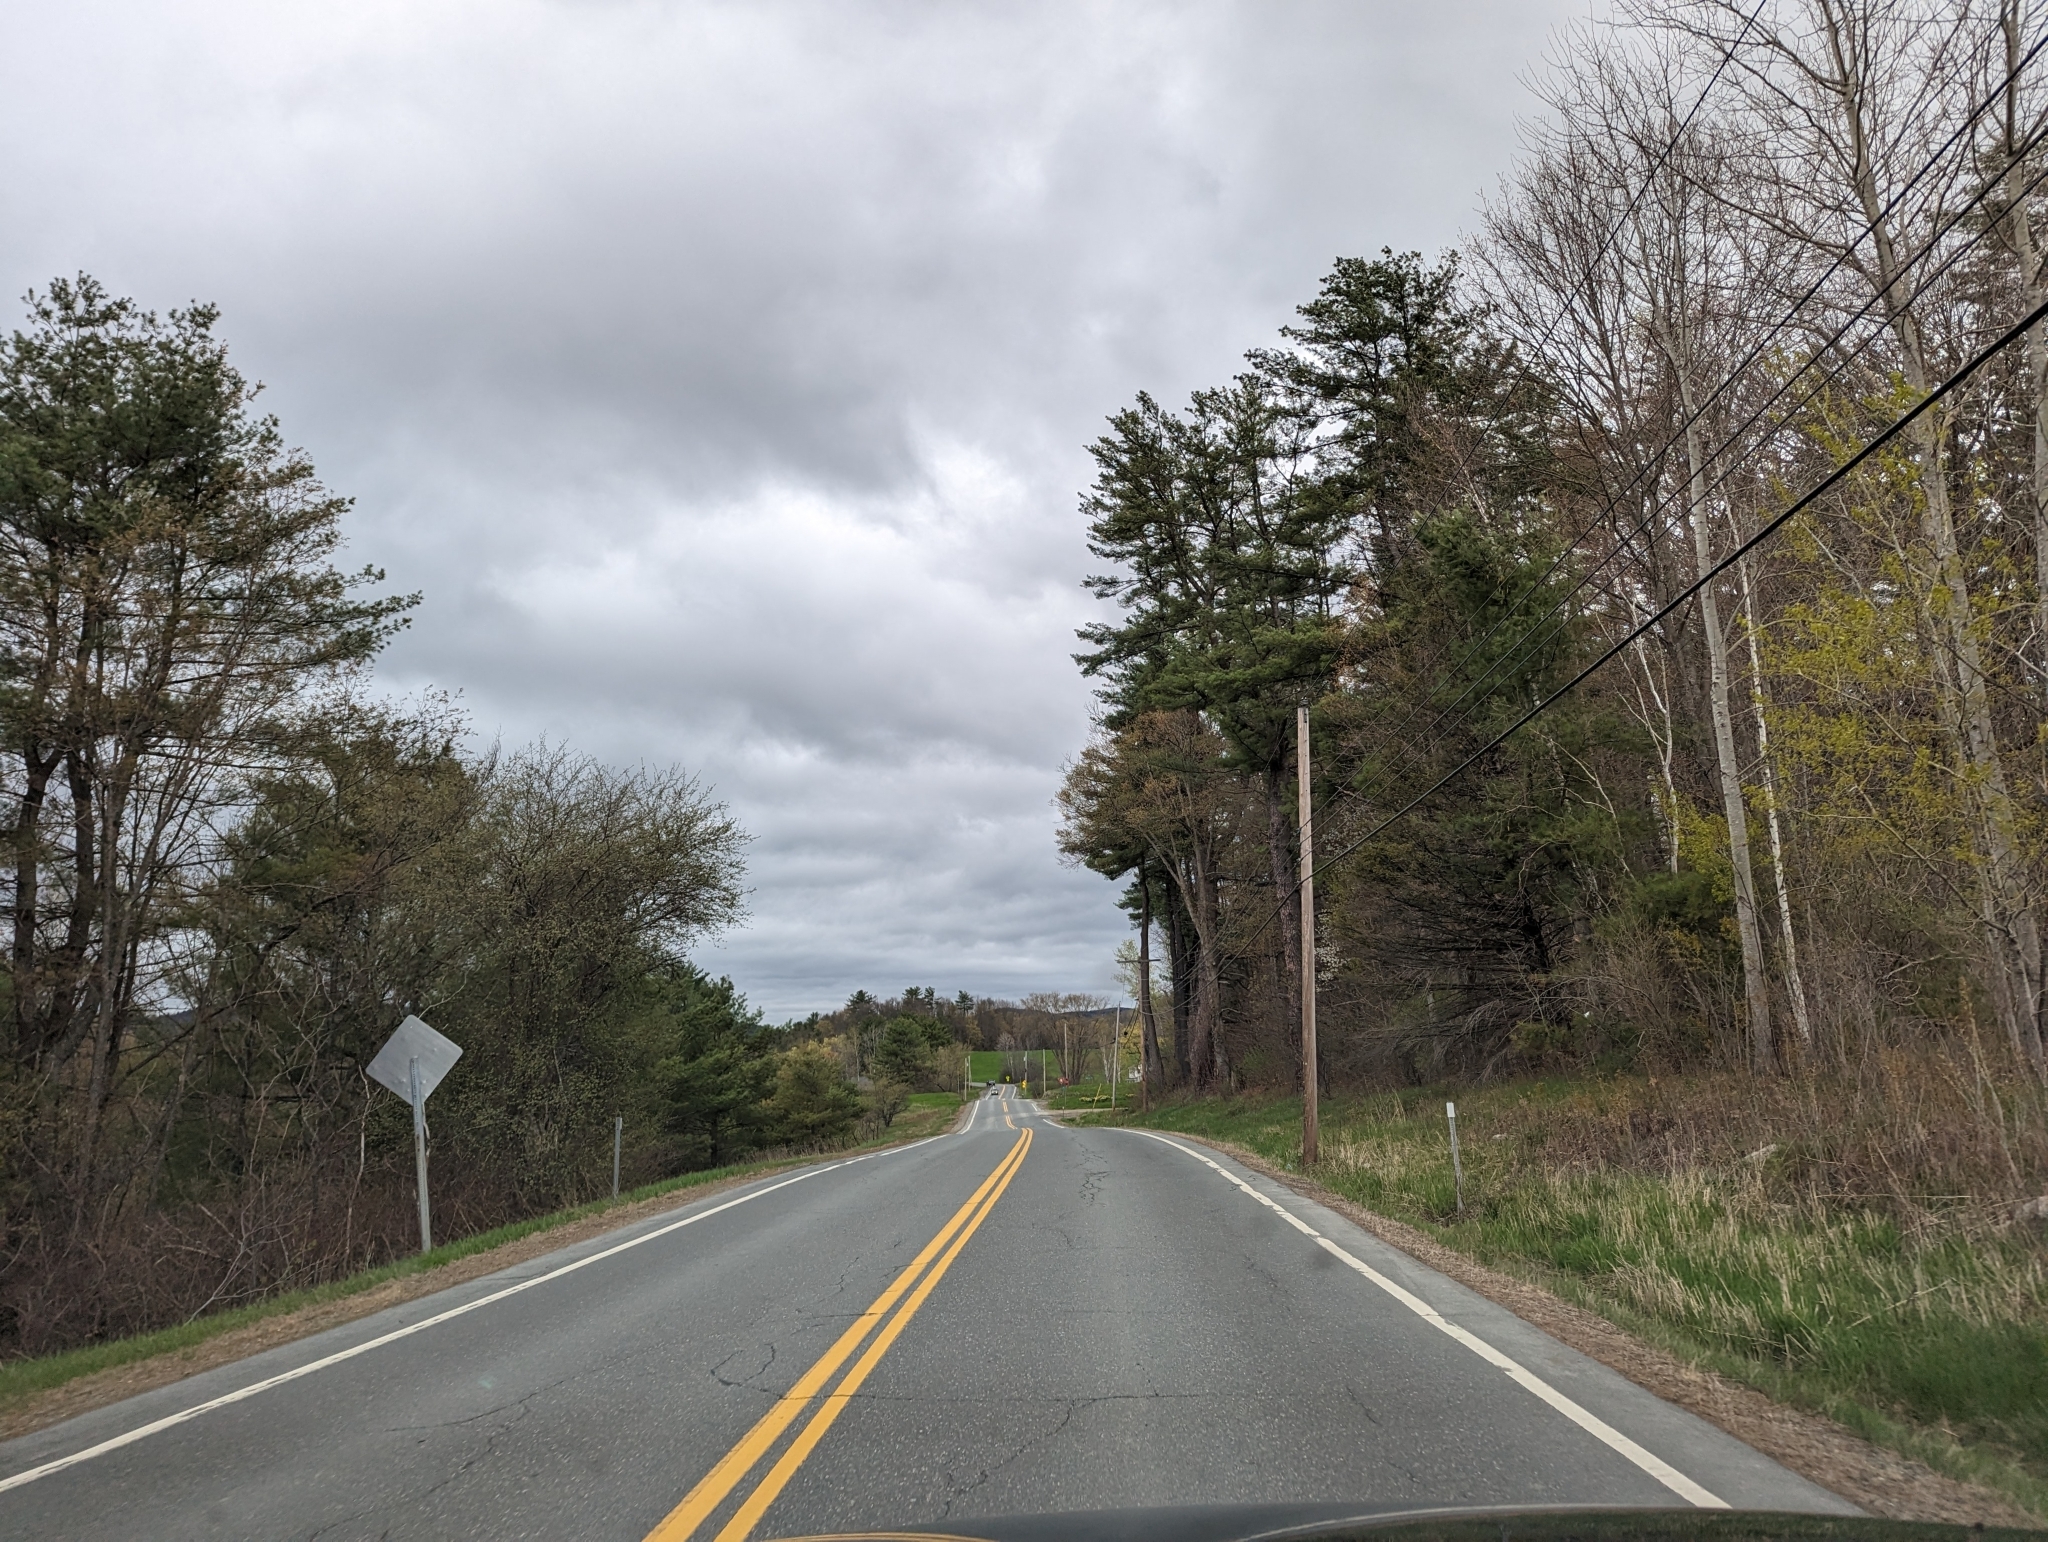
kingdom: Plantae
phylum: Tracheophyta
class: Pinopsida
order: Pinales
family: Pinaceae
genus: Pinus
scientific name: Pinus strobus
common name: Weymouth pine
